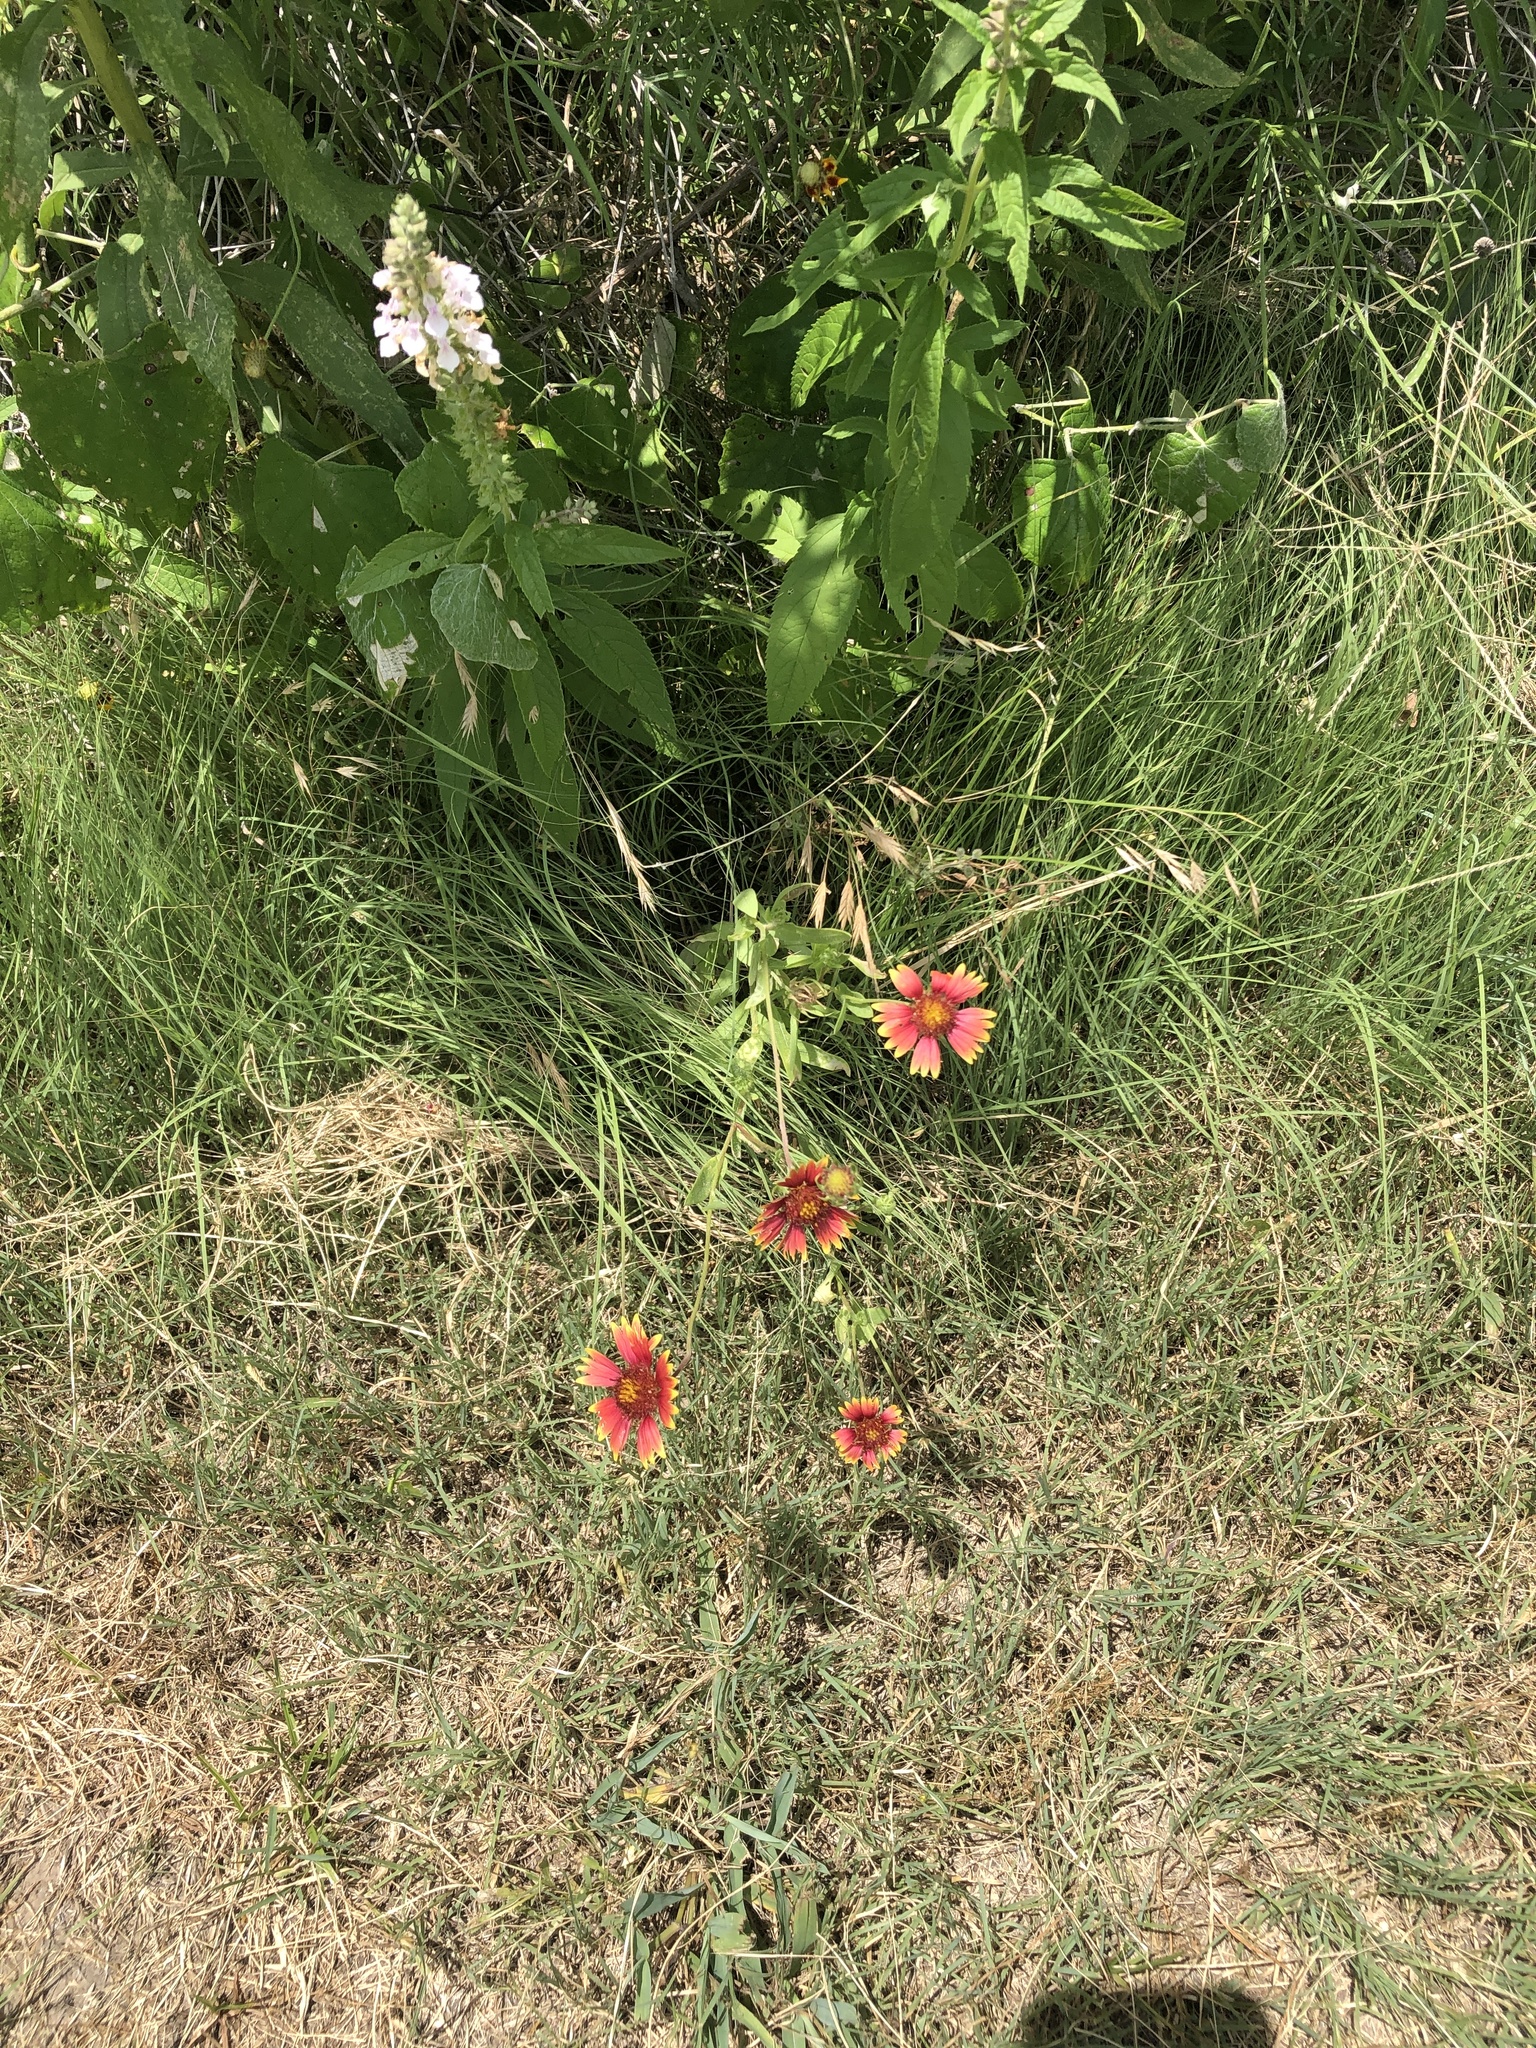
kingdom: Plantae
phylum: Tracheophyta
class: Magnoliopsida
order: Asterales
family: Asteraceae
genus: Gaillardia
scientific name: Gaillardia pulchella
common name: Firewheel
